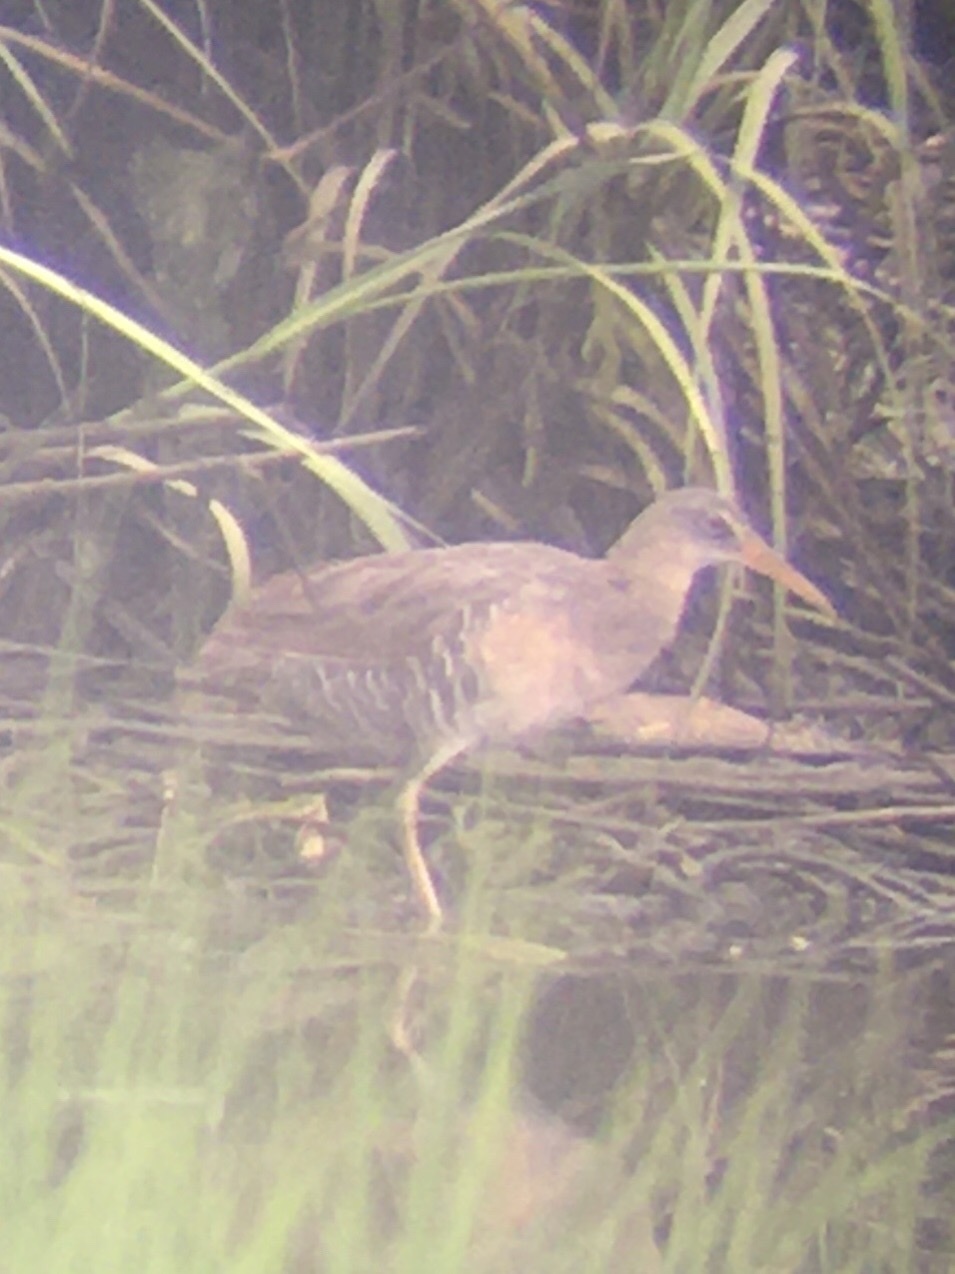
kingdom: Animalia
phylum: Chordata
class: Aves
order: Gruiformes
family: Rallidae
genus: Rallus
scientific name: Rallus crepitans
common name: Clapper rail
